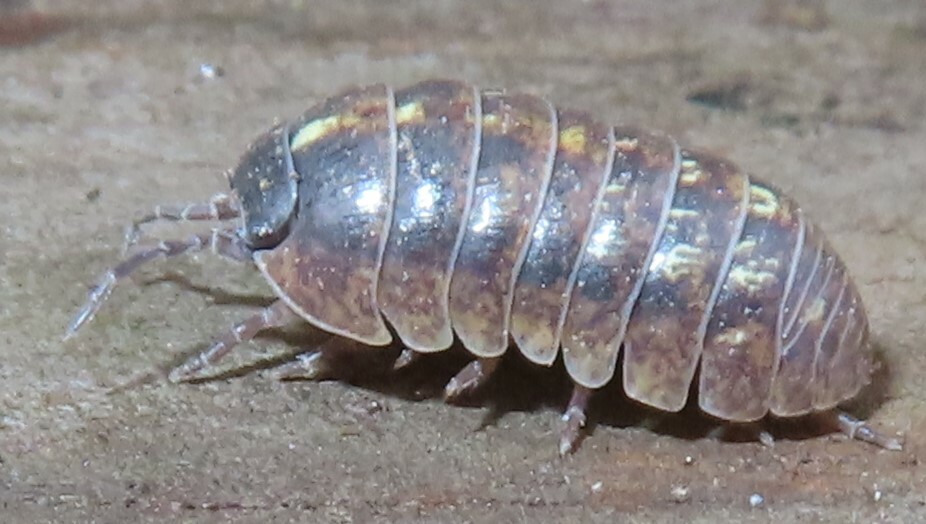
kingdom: Animalia
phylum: Arthropoda
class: Malacostraca
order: Isopoda
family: Armadillidiidae
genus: Armadillidium
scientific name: Armadillidium vulgare
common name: Common pill woodlouse
